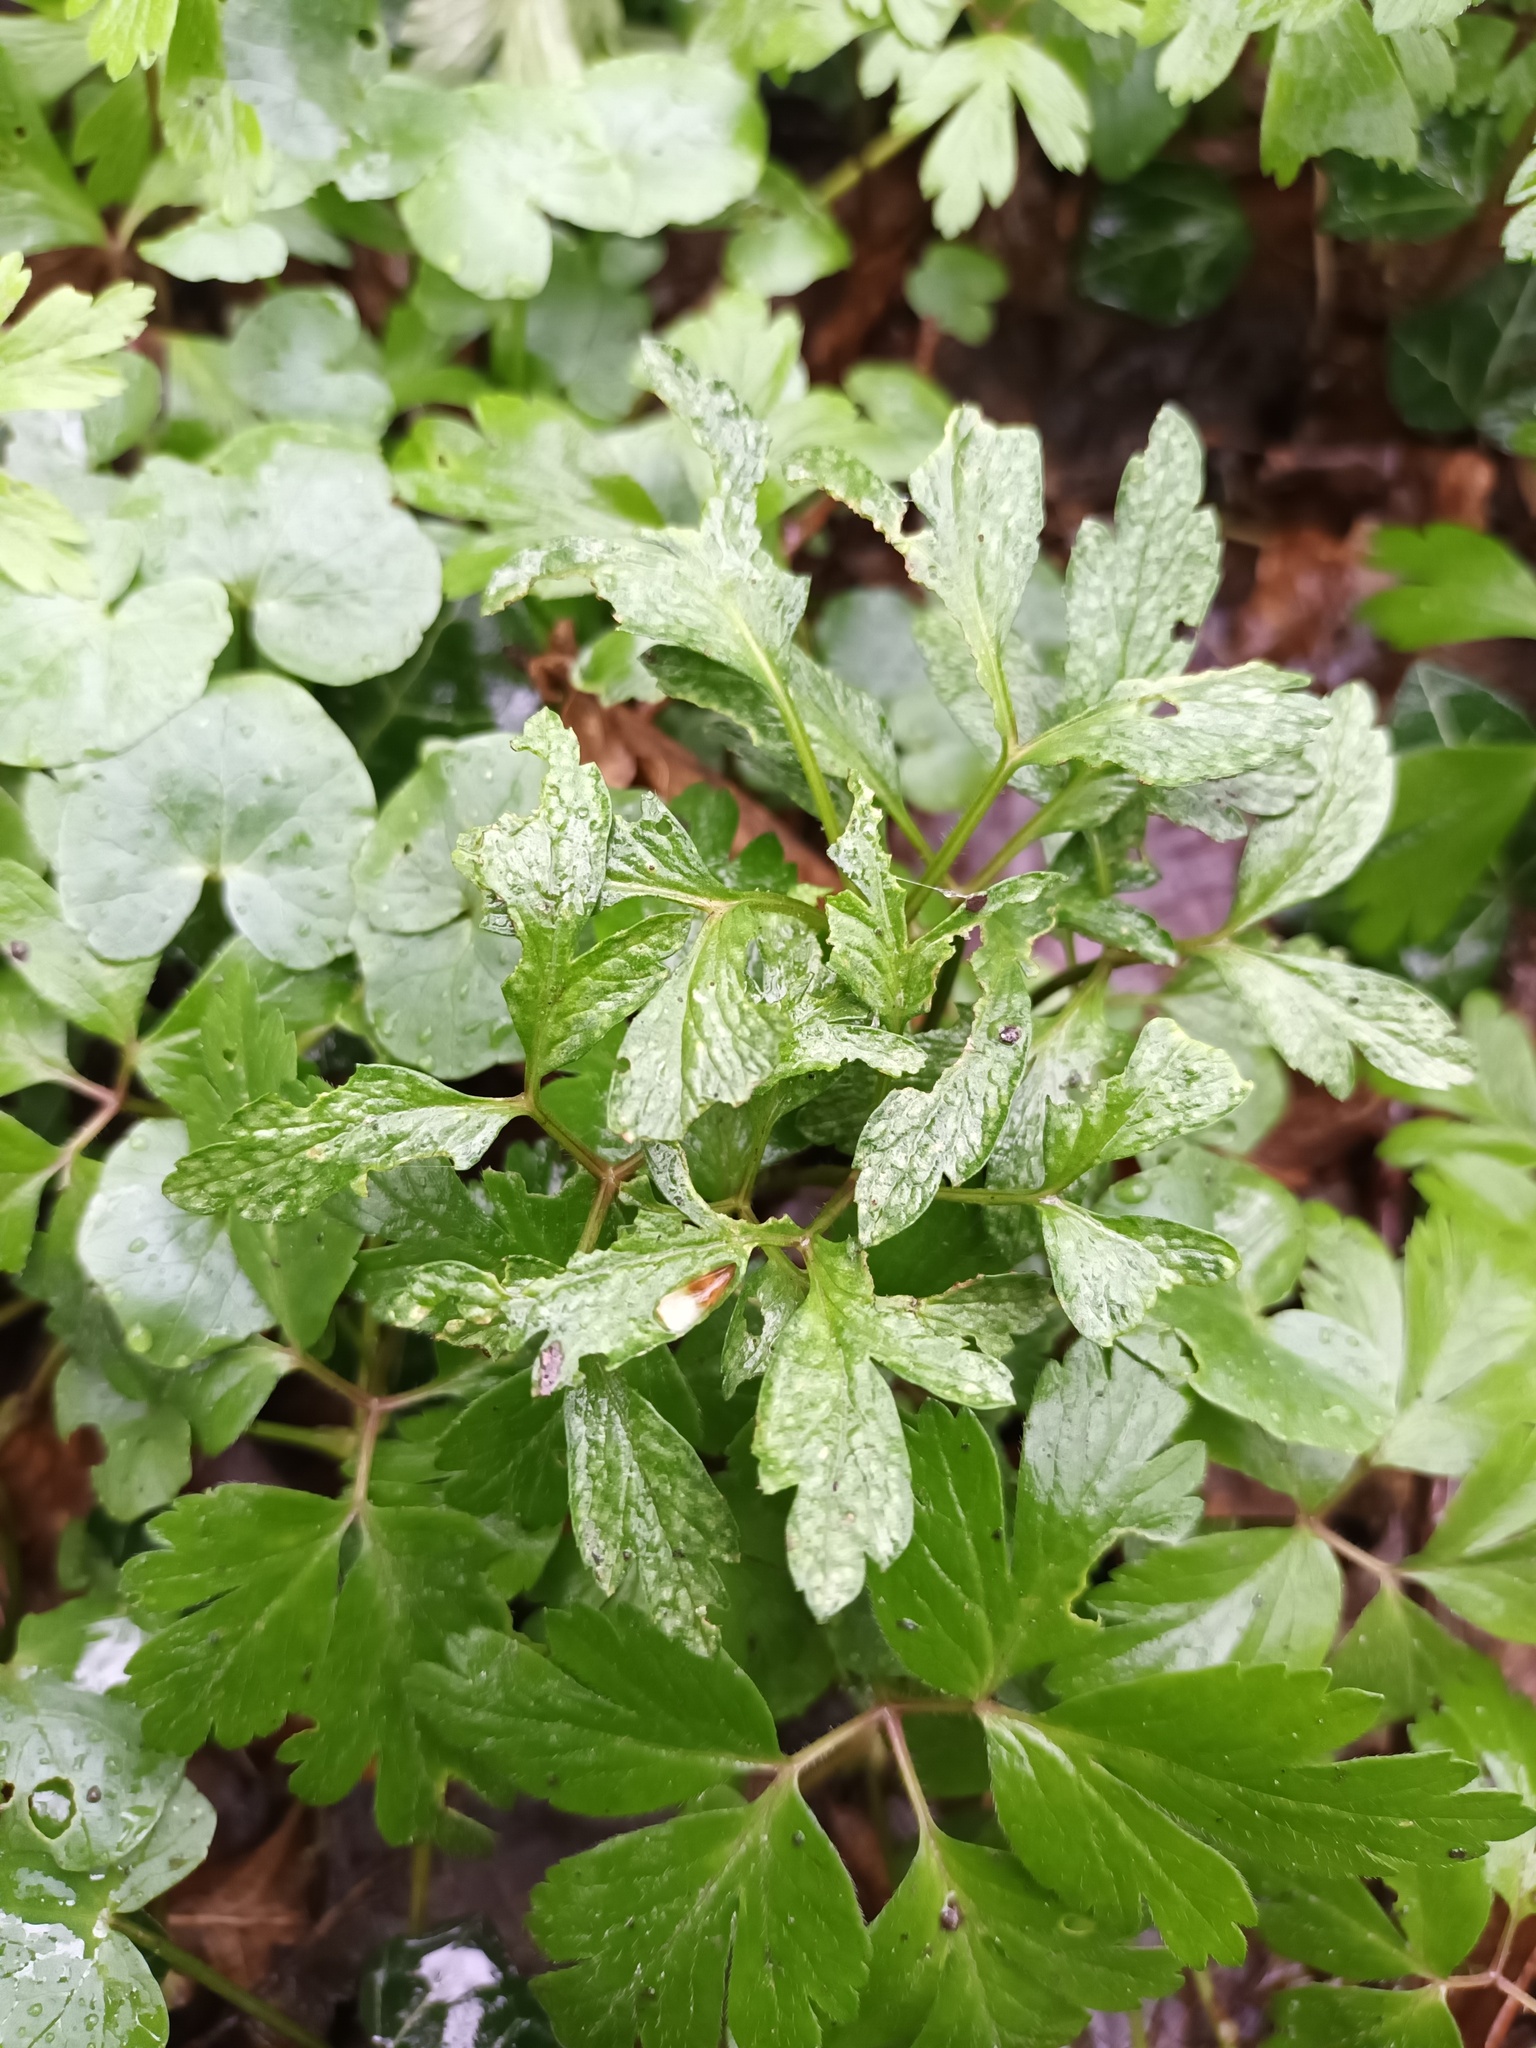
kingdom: Fungi
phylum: Basidiomycota
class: Pucciniomycetes
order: Pucciniales
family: Tranzscheliaceae
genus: Tranzschelia
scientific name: Tranzschelia anemones
